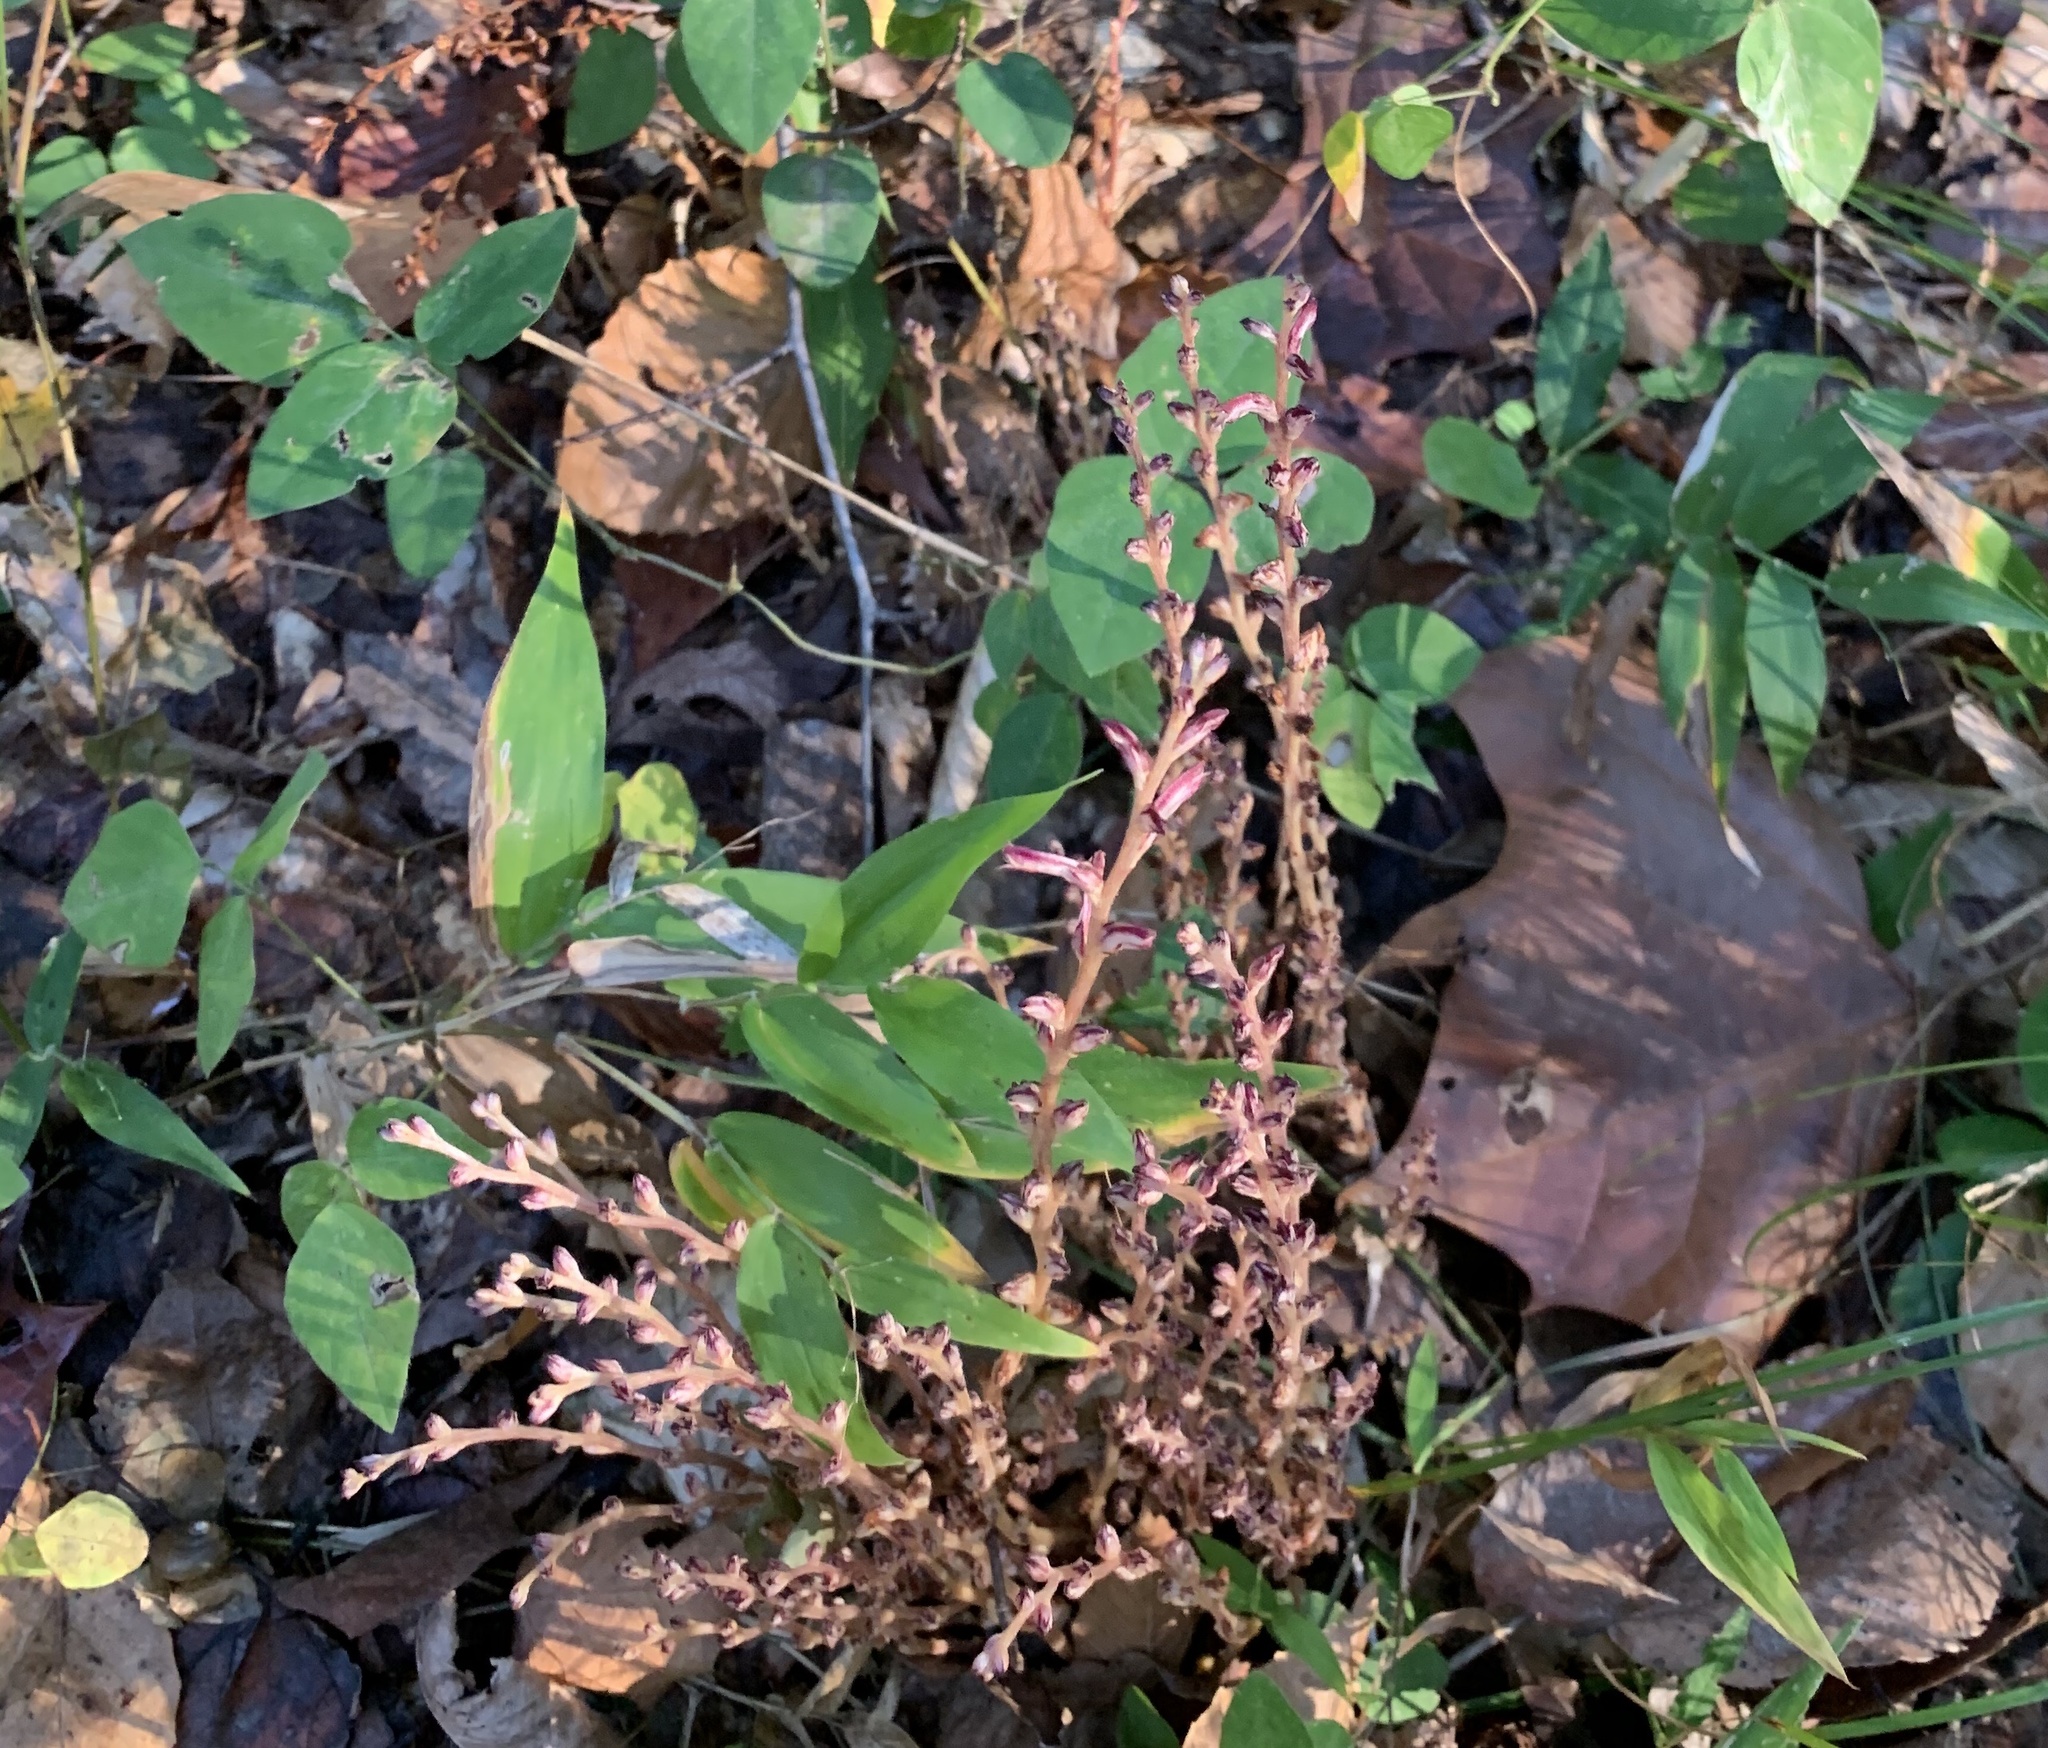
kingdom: Plantae
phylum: Tracheophyta
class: Magnoliopsida
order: Lamiales
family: Orobanchaceae
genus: Epifagus
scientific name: Epifagus virginiana
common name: Beechdrops
